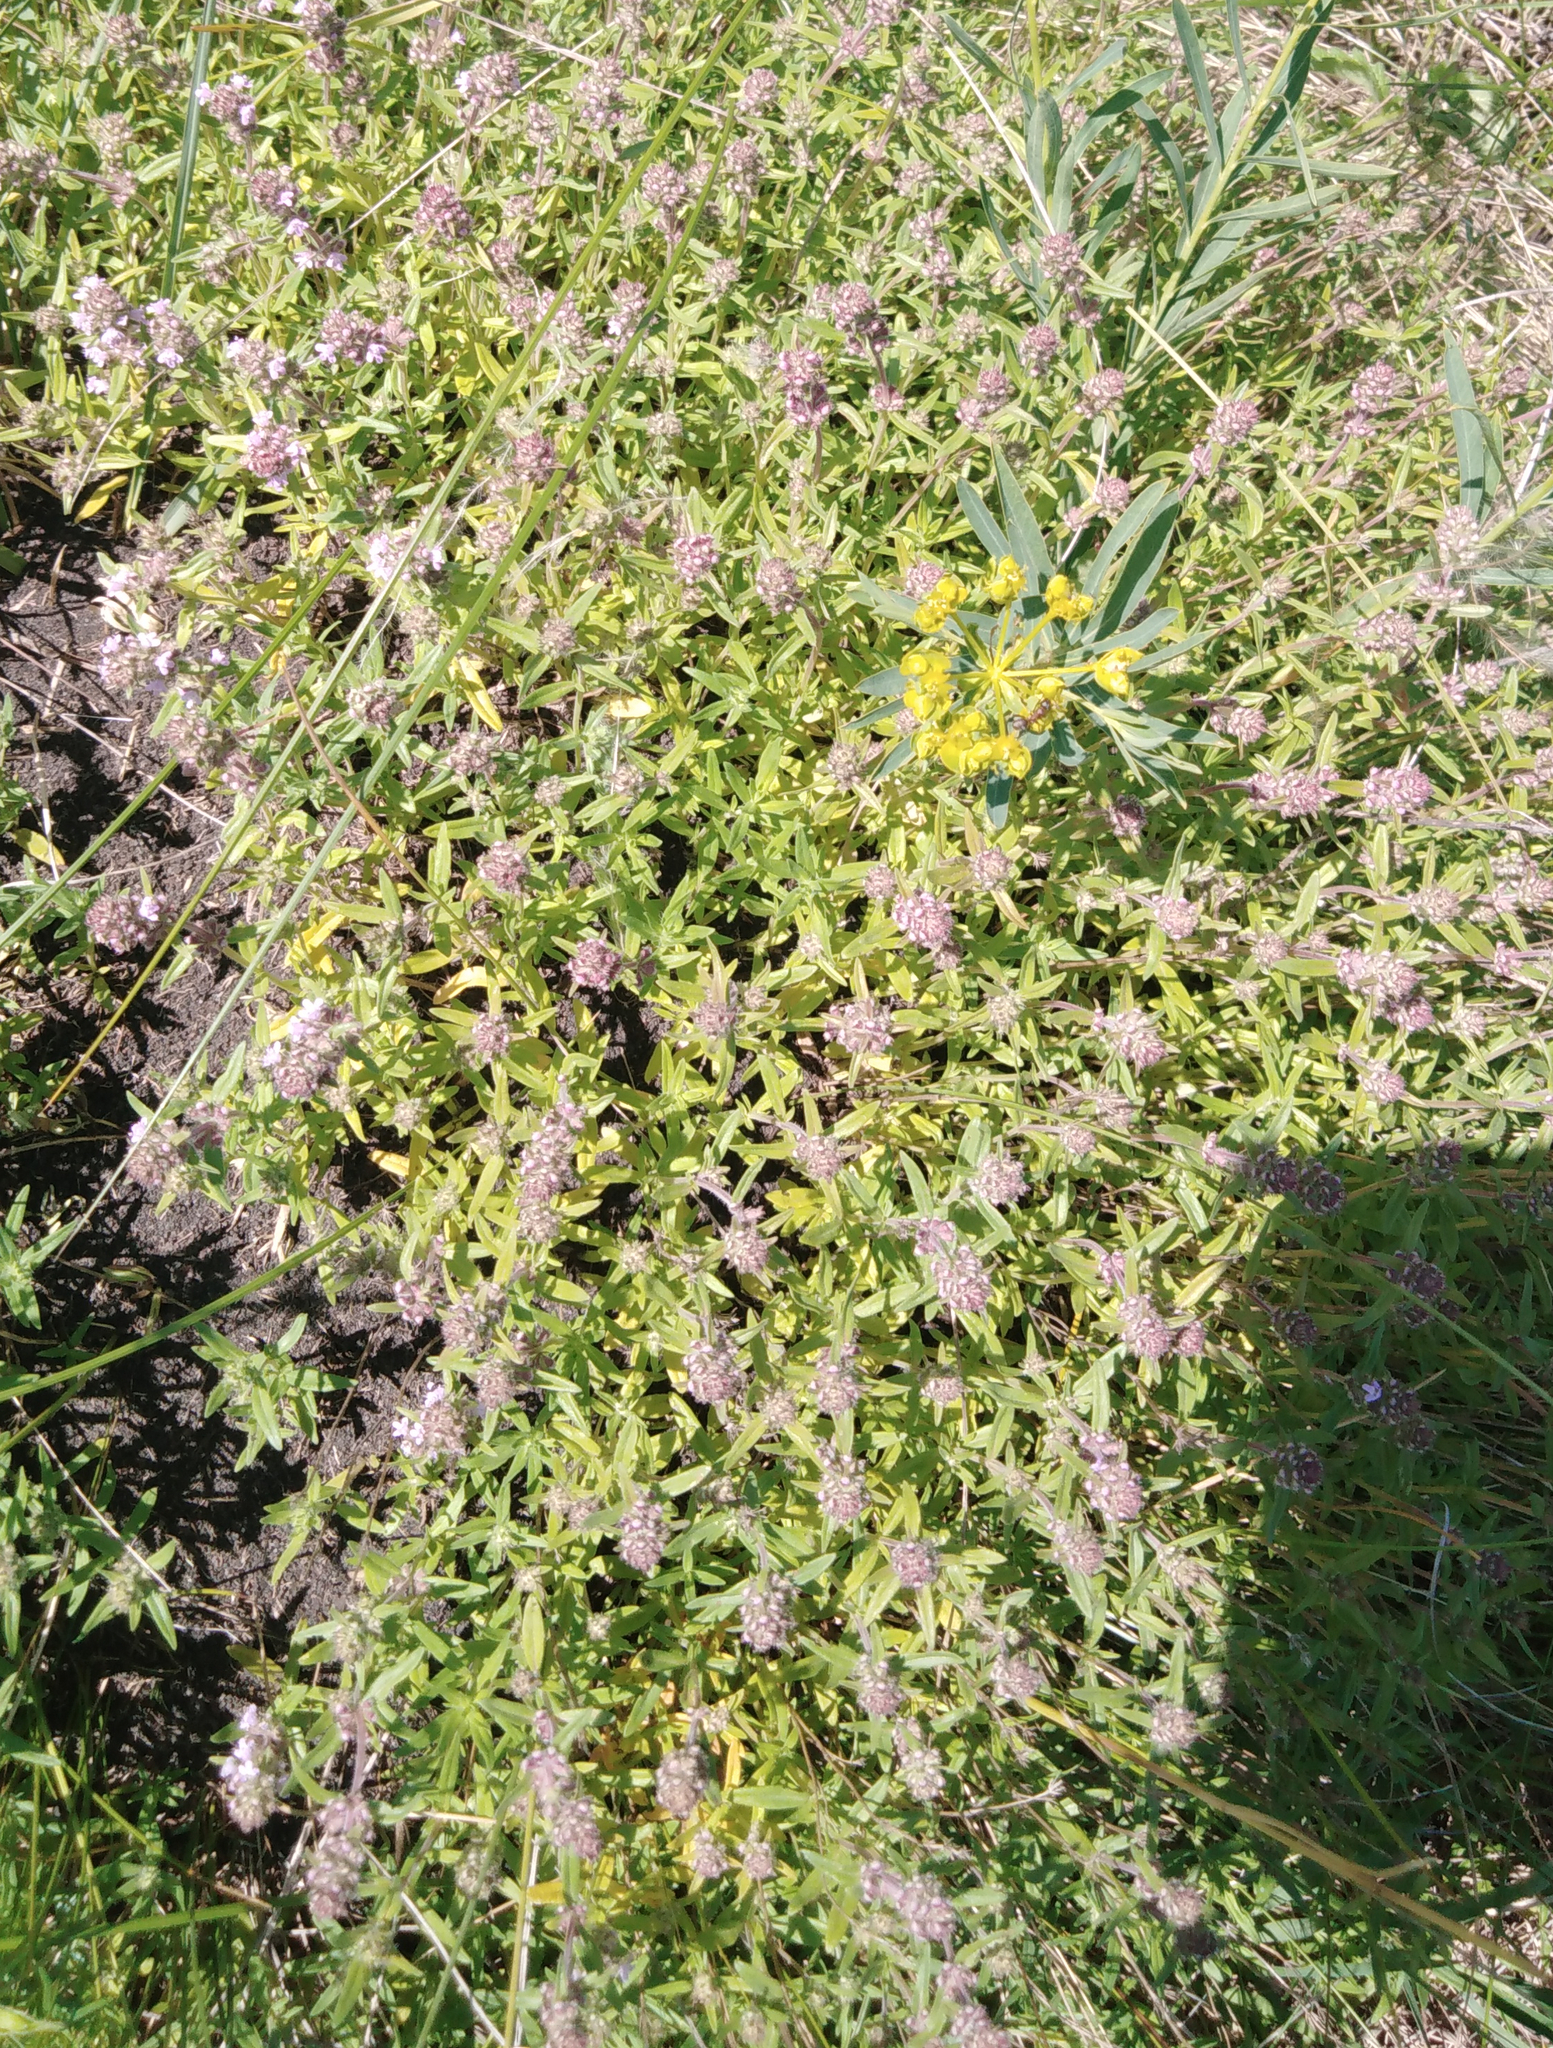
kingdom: Plantae
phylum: Tracheophyta
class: Magnoliopsida
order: Lamiales
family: Lamiaceae
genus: Thymus
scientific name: Thymus pannonicus
